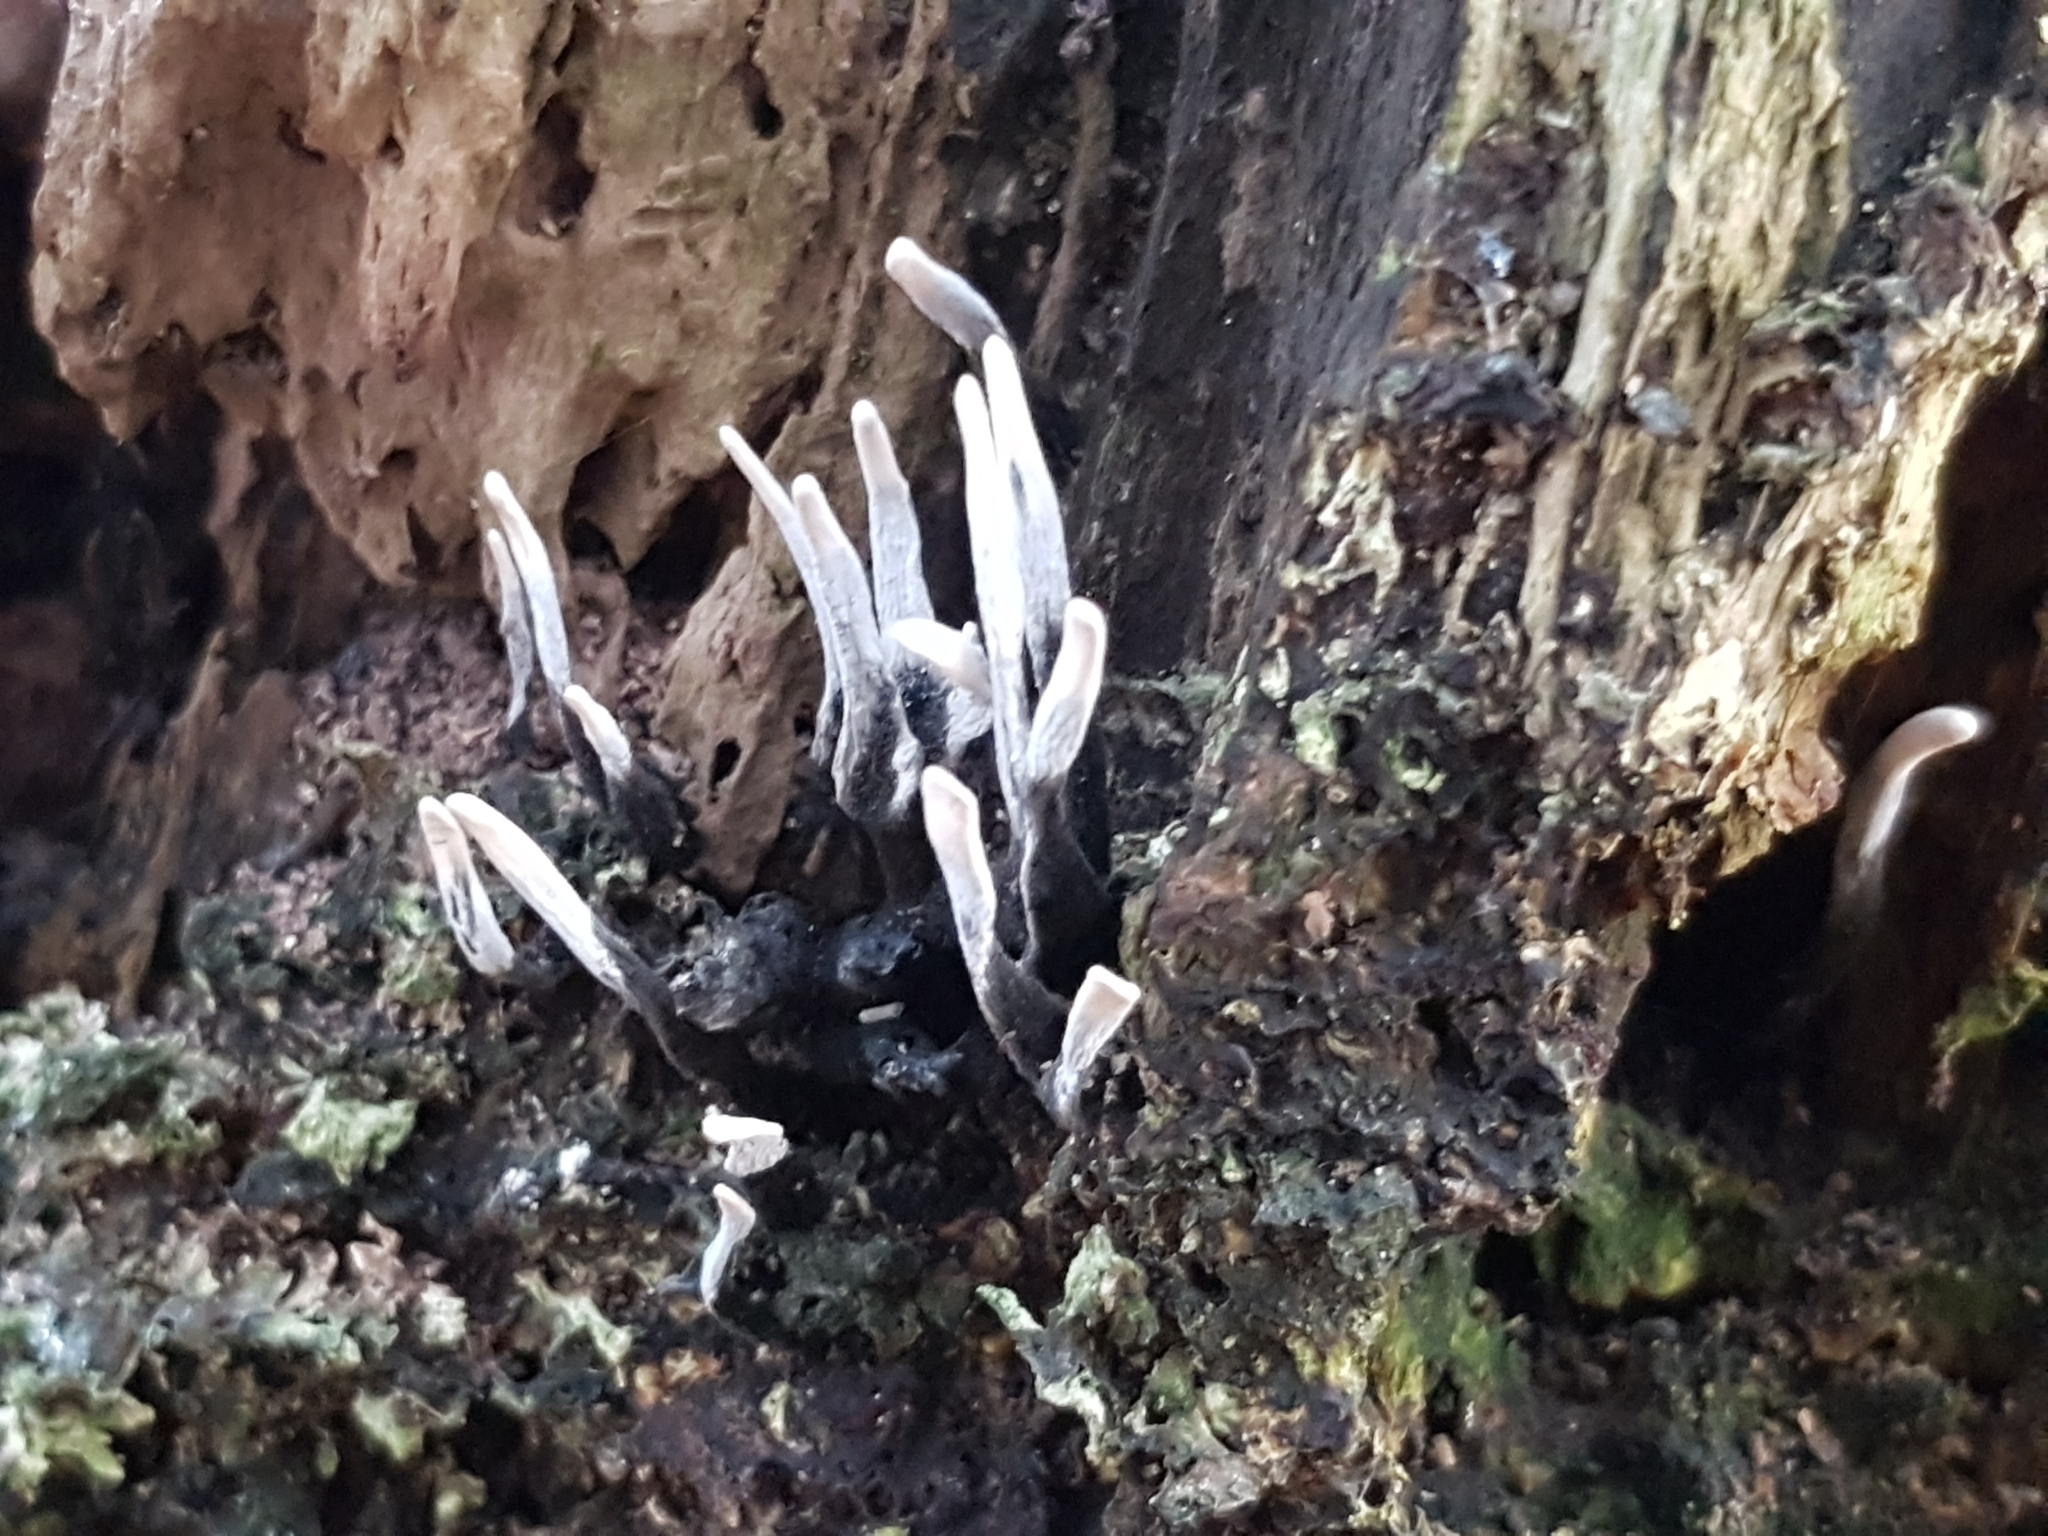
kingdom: Fungi
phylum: Ascomycota
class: Sordariomycetes
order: Xylariales
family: Xylariaceae
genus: Xylaria
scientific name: Xylaria hypoxylon
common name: Candle-snuff fungus
